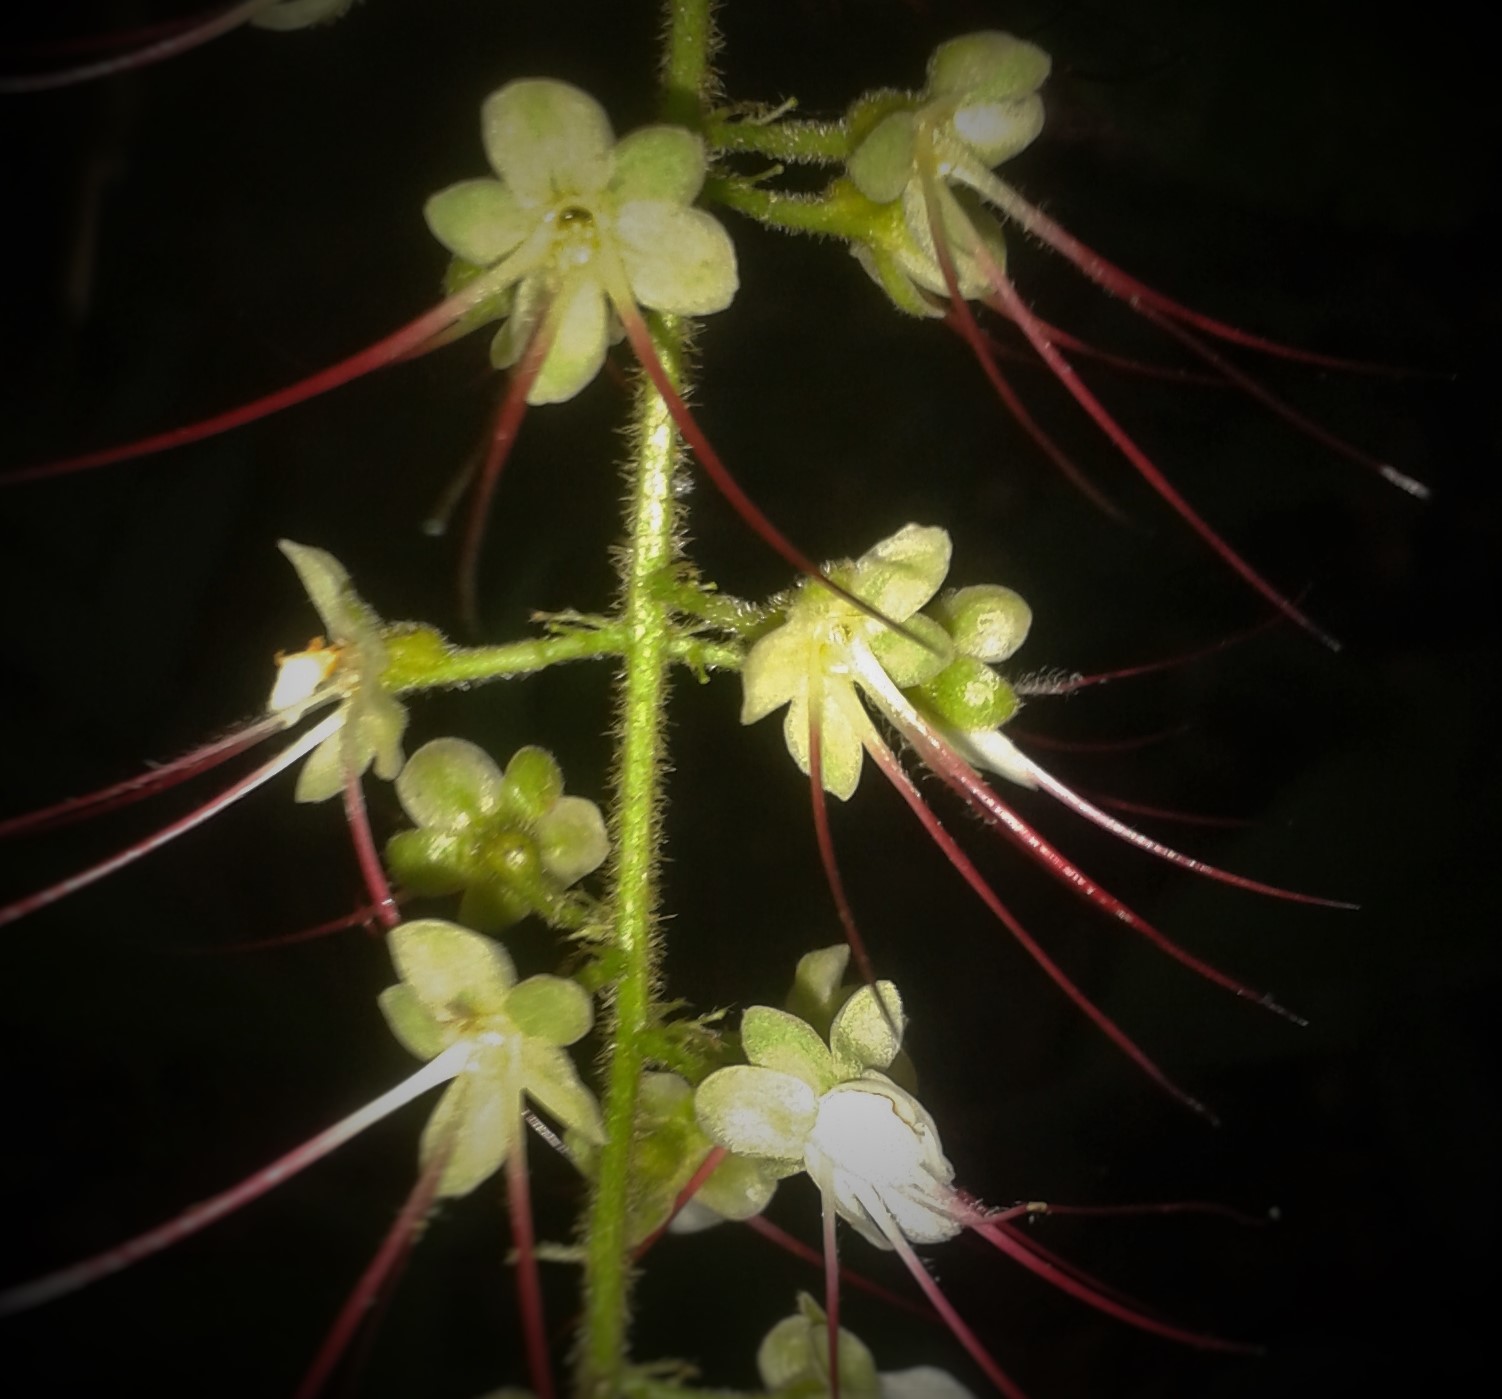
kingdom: Plantae
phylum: Tracheophyta
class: Magnoliopsida
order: Malpighiales
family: Chrysobalanaceae
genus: Hirtella
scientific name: Hirtella lemsii
